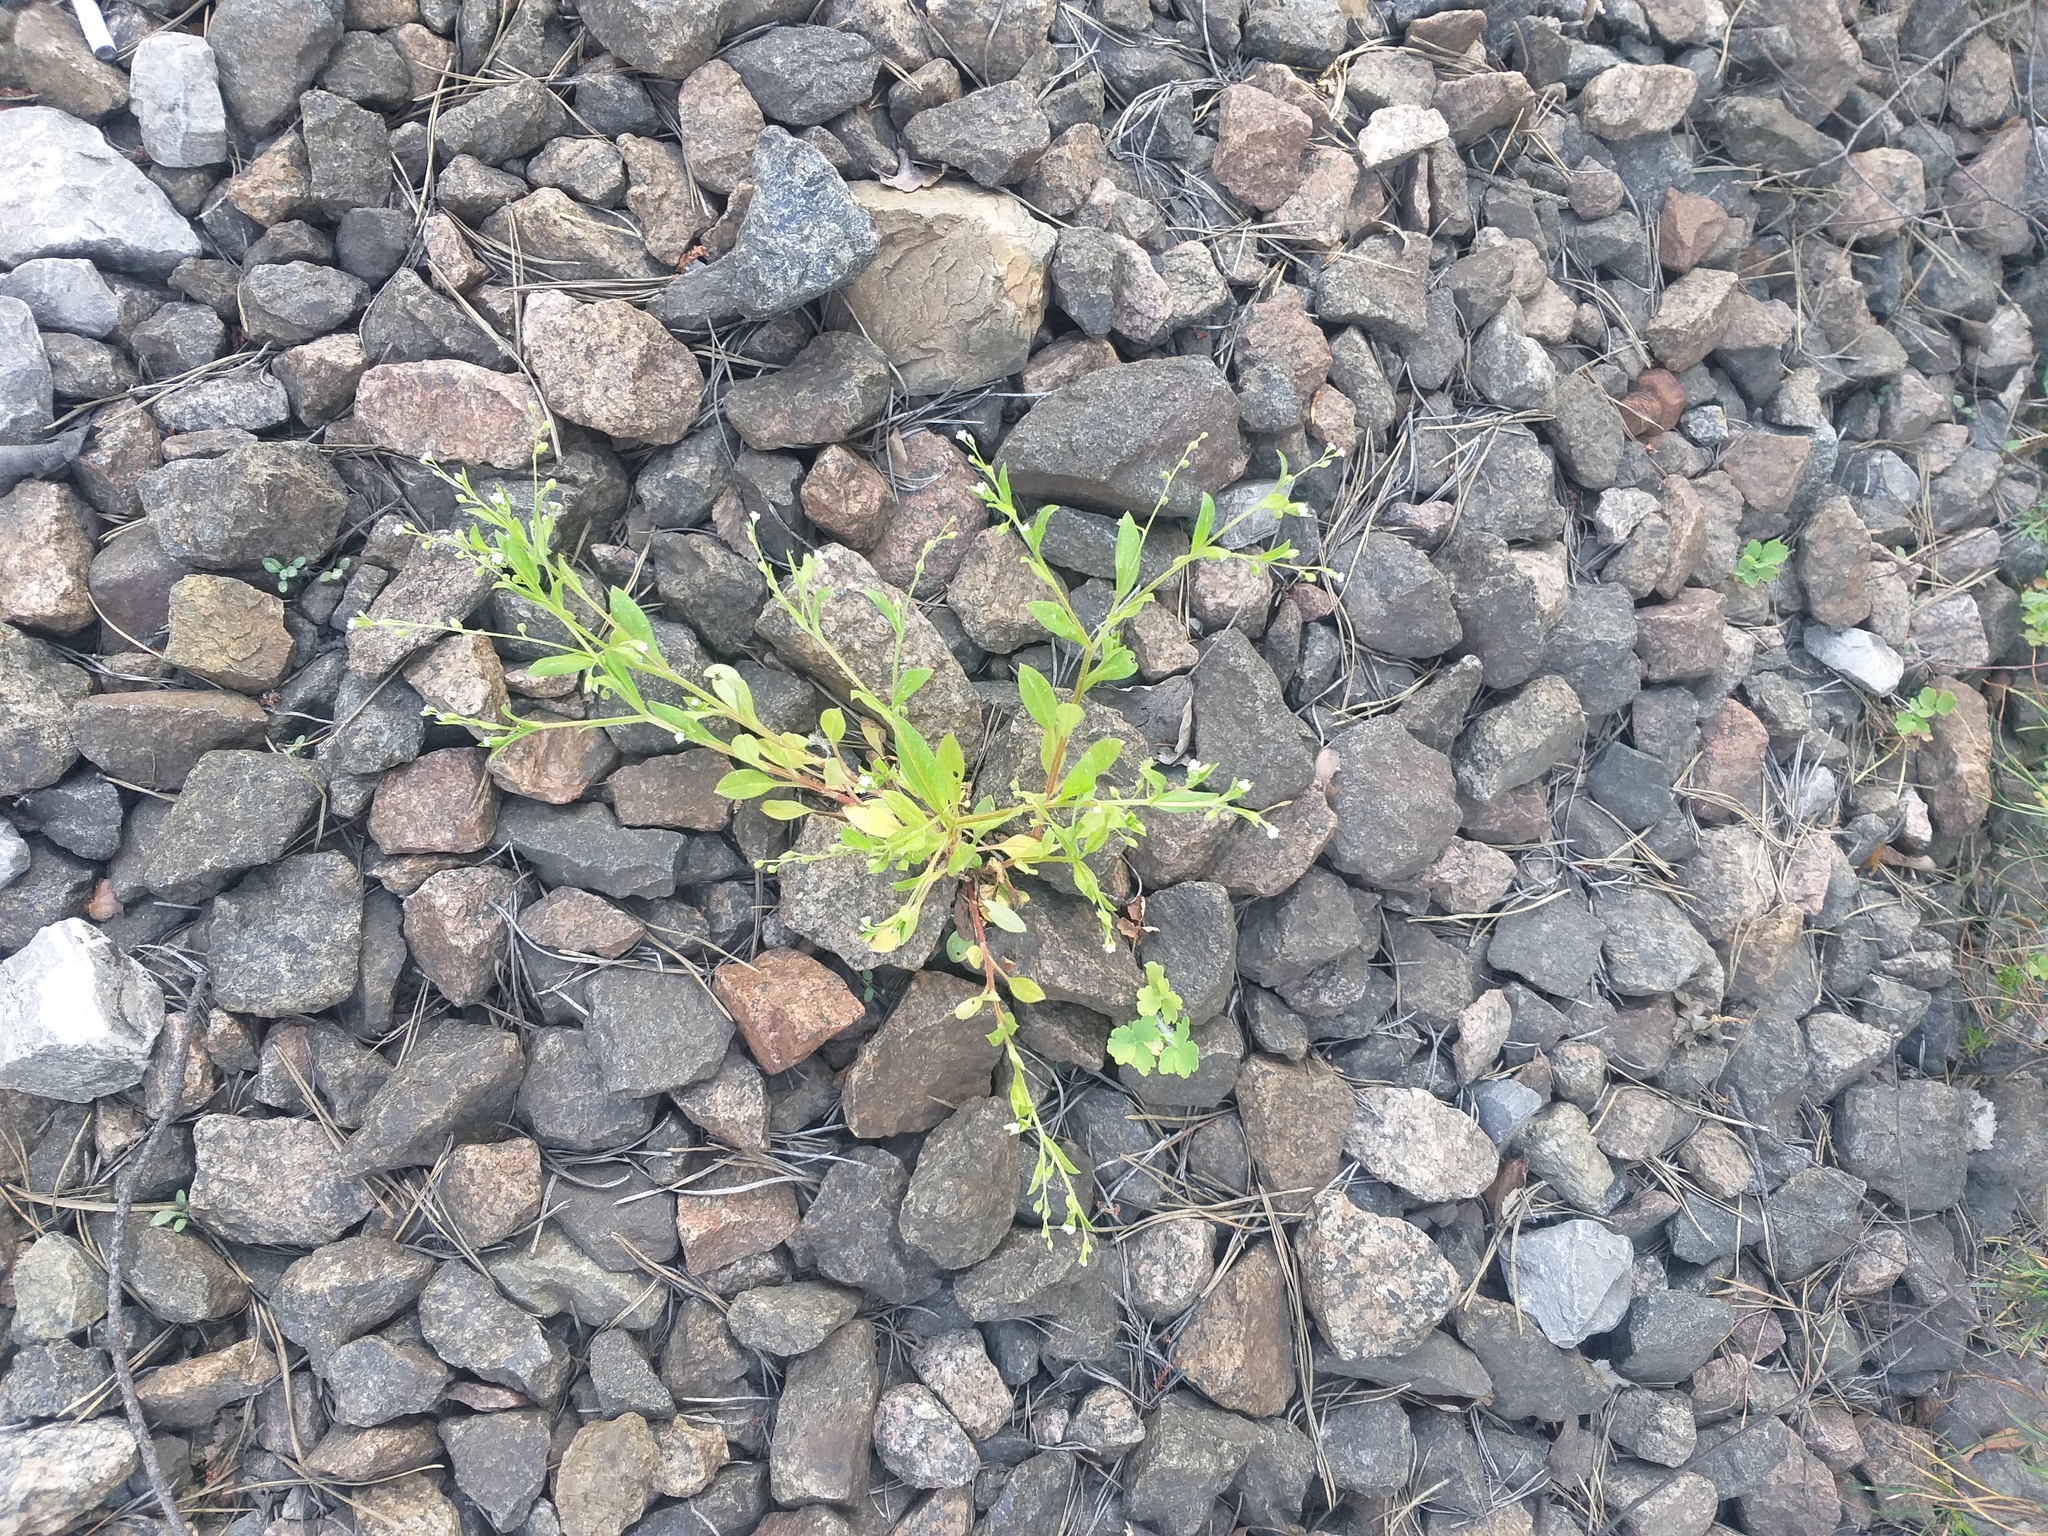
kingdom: Plantae
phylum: Tracheophyta
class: Magnoliopsida
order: Boraginales
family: Boraginaceae
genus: Myosotis
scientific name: Myosotis sparsiflora
